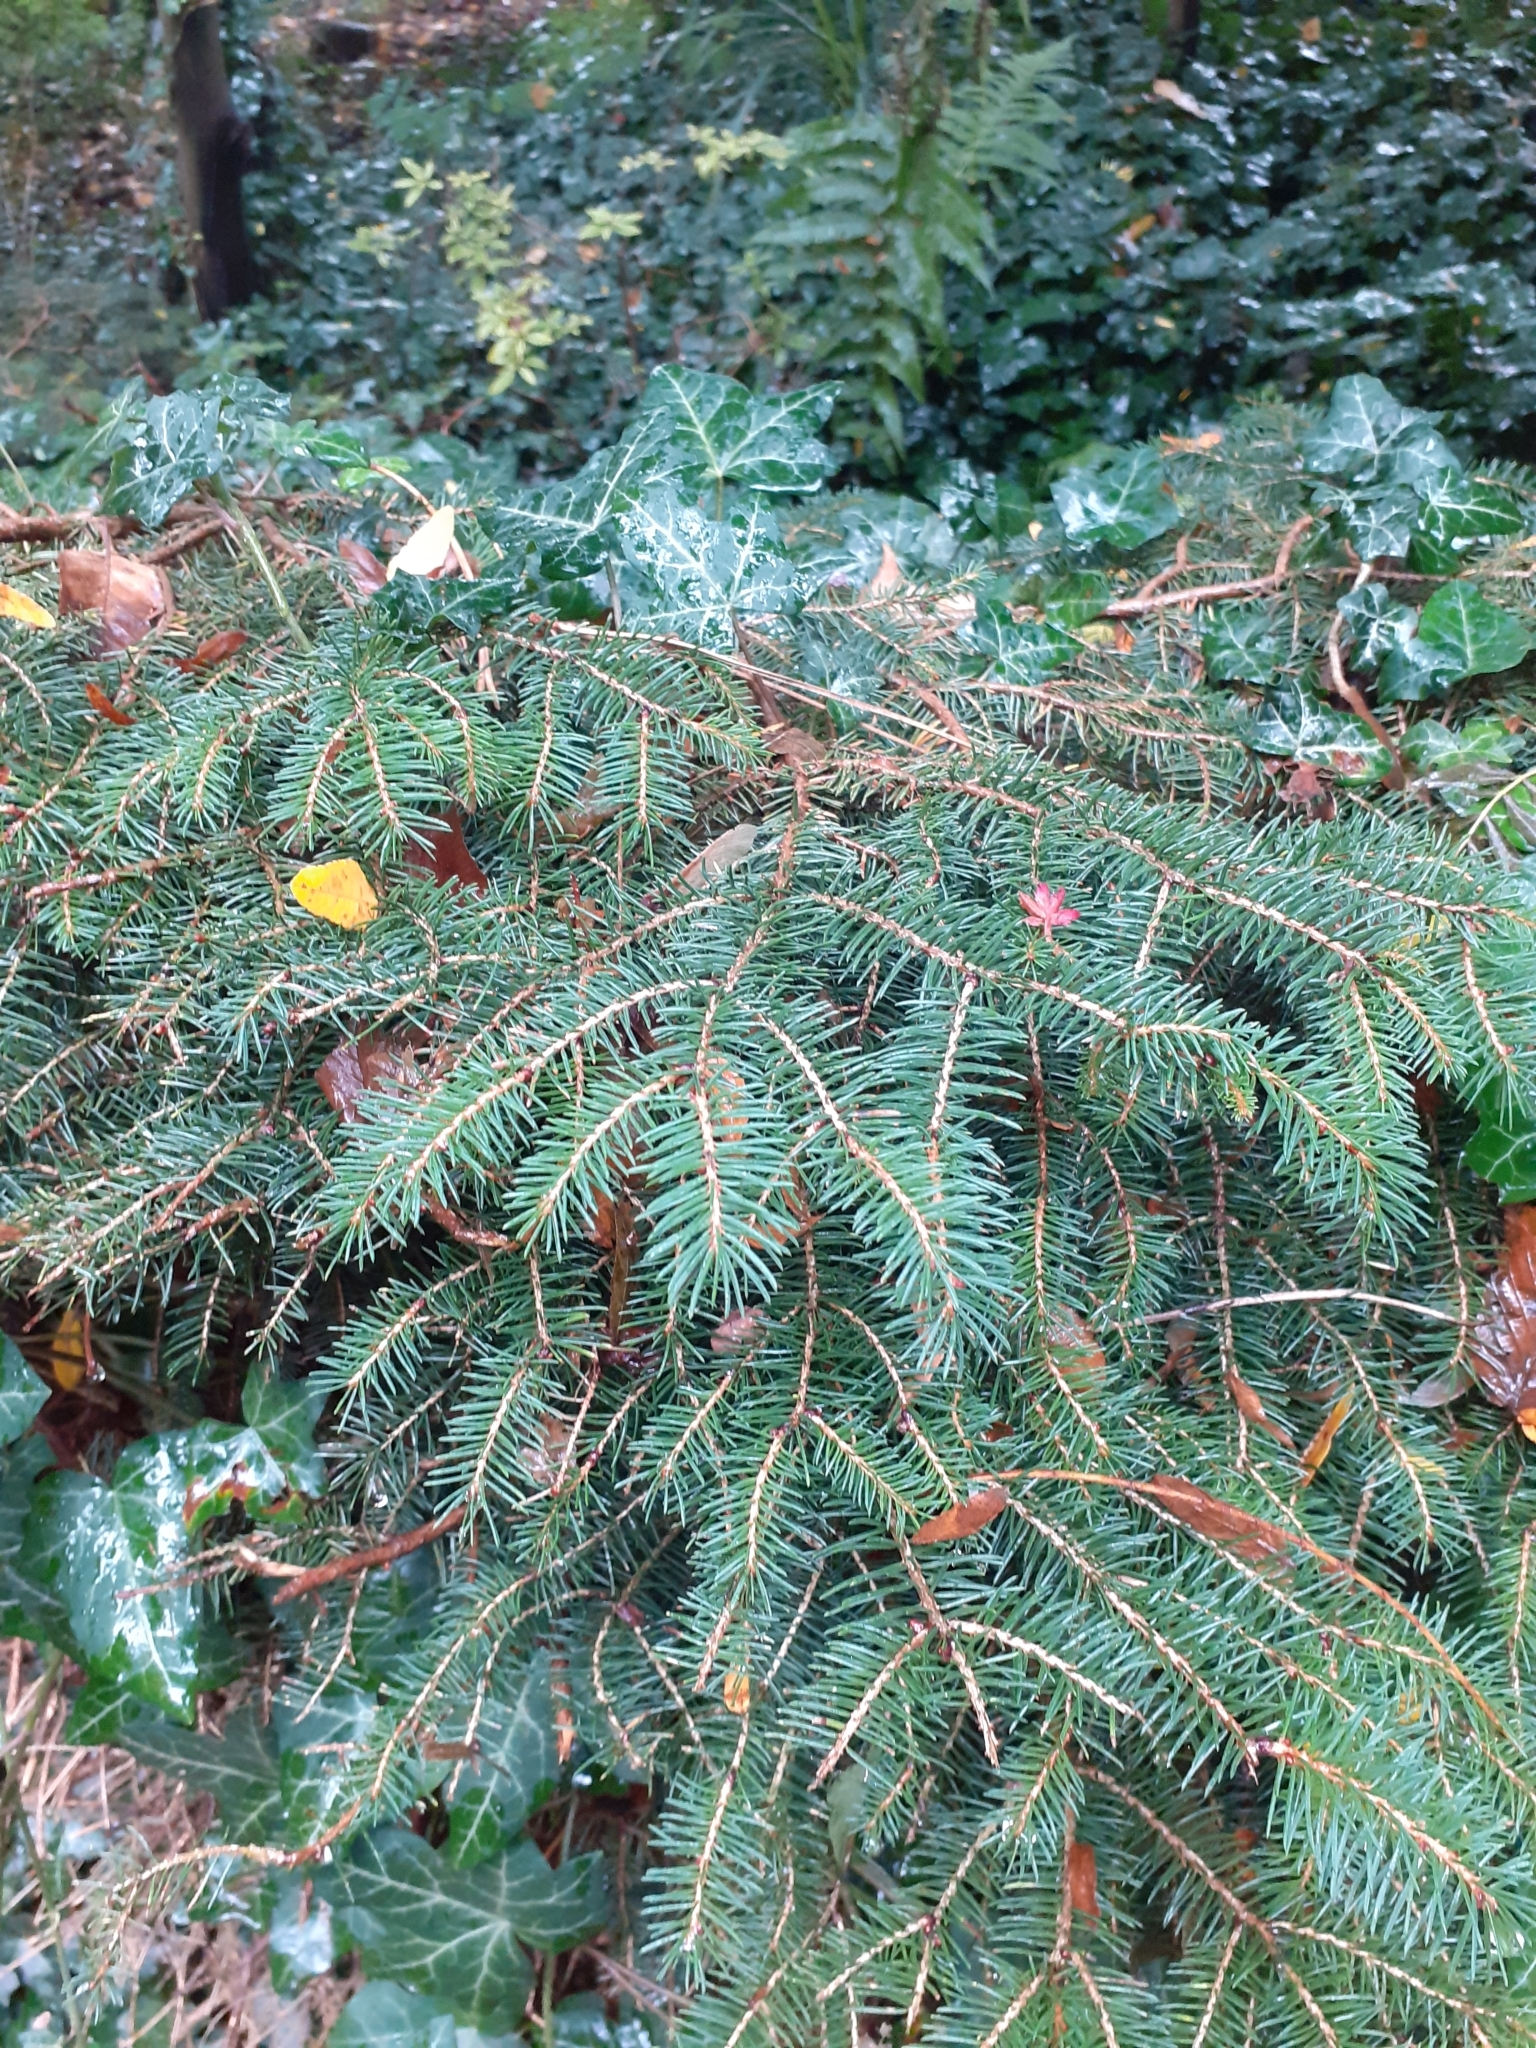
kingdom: Plantae
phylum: Tracheophyta
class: Pinopsida
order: Pinales
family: Pinaceae
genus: Picea
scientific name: Picea abies
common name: Norway spruce
